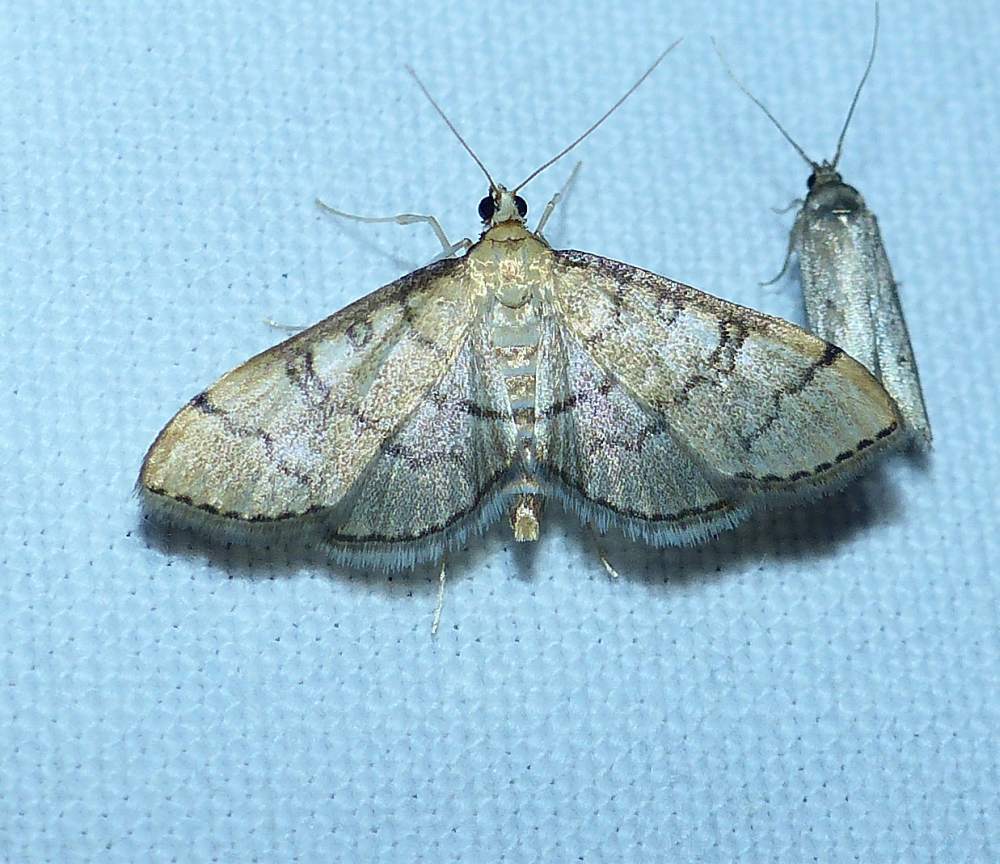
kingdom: Animalia
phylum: Arthropoda
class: Insecta
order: Lepidoptera
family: Crambidae
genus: Lamprosema
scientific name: Lamprosema Blepharomastix ranalis
